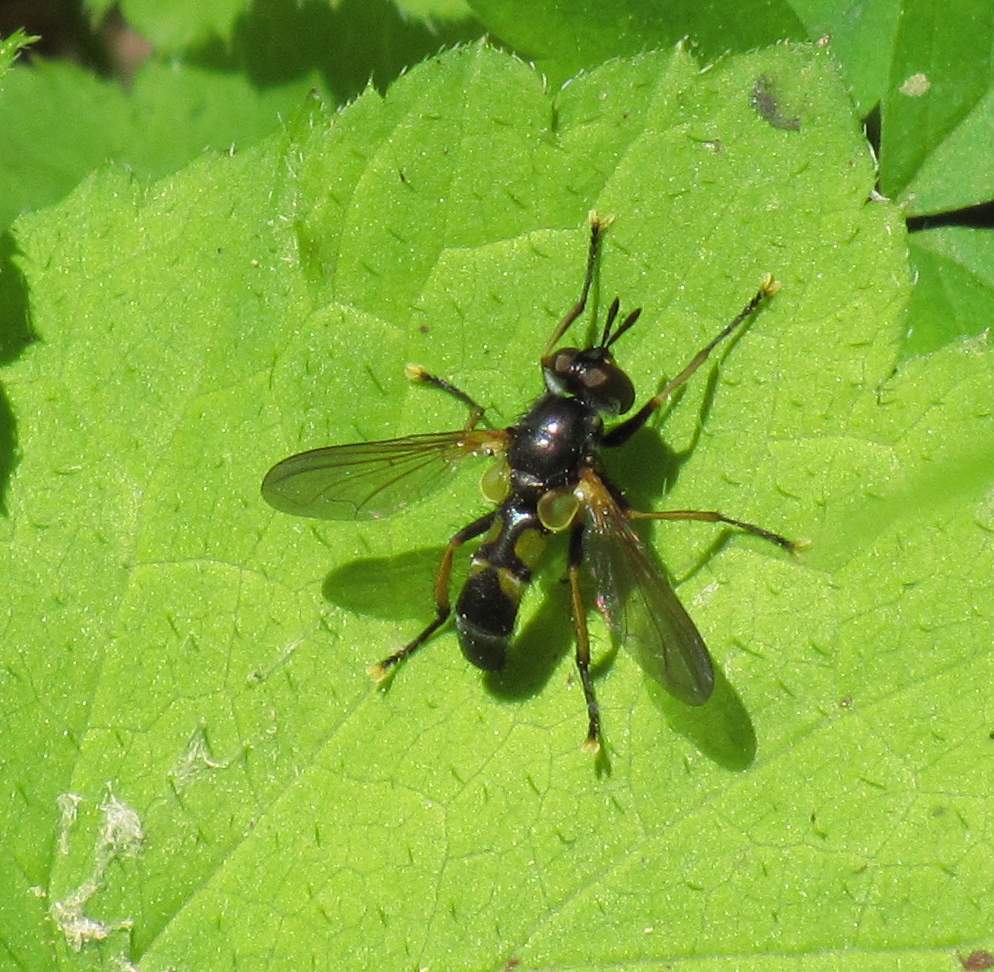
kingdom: Animalia
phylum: Arthropoda
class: Insecta
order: Diptera
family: Tachinidae
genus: Hemyda
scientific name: Hemyda aurata
